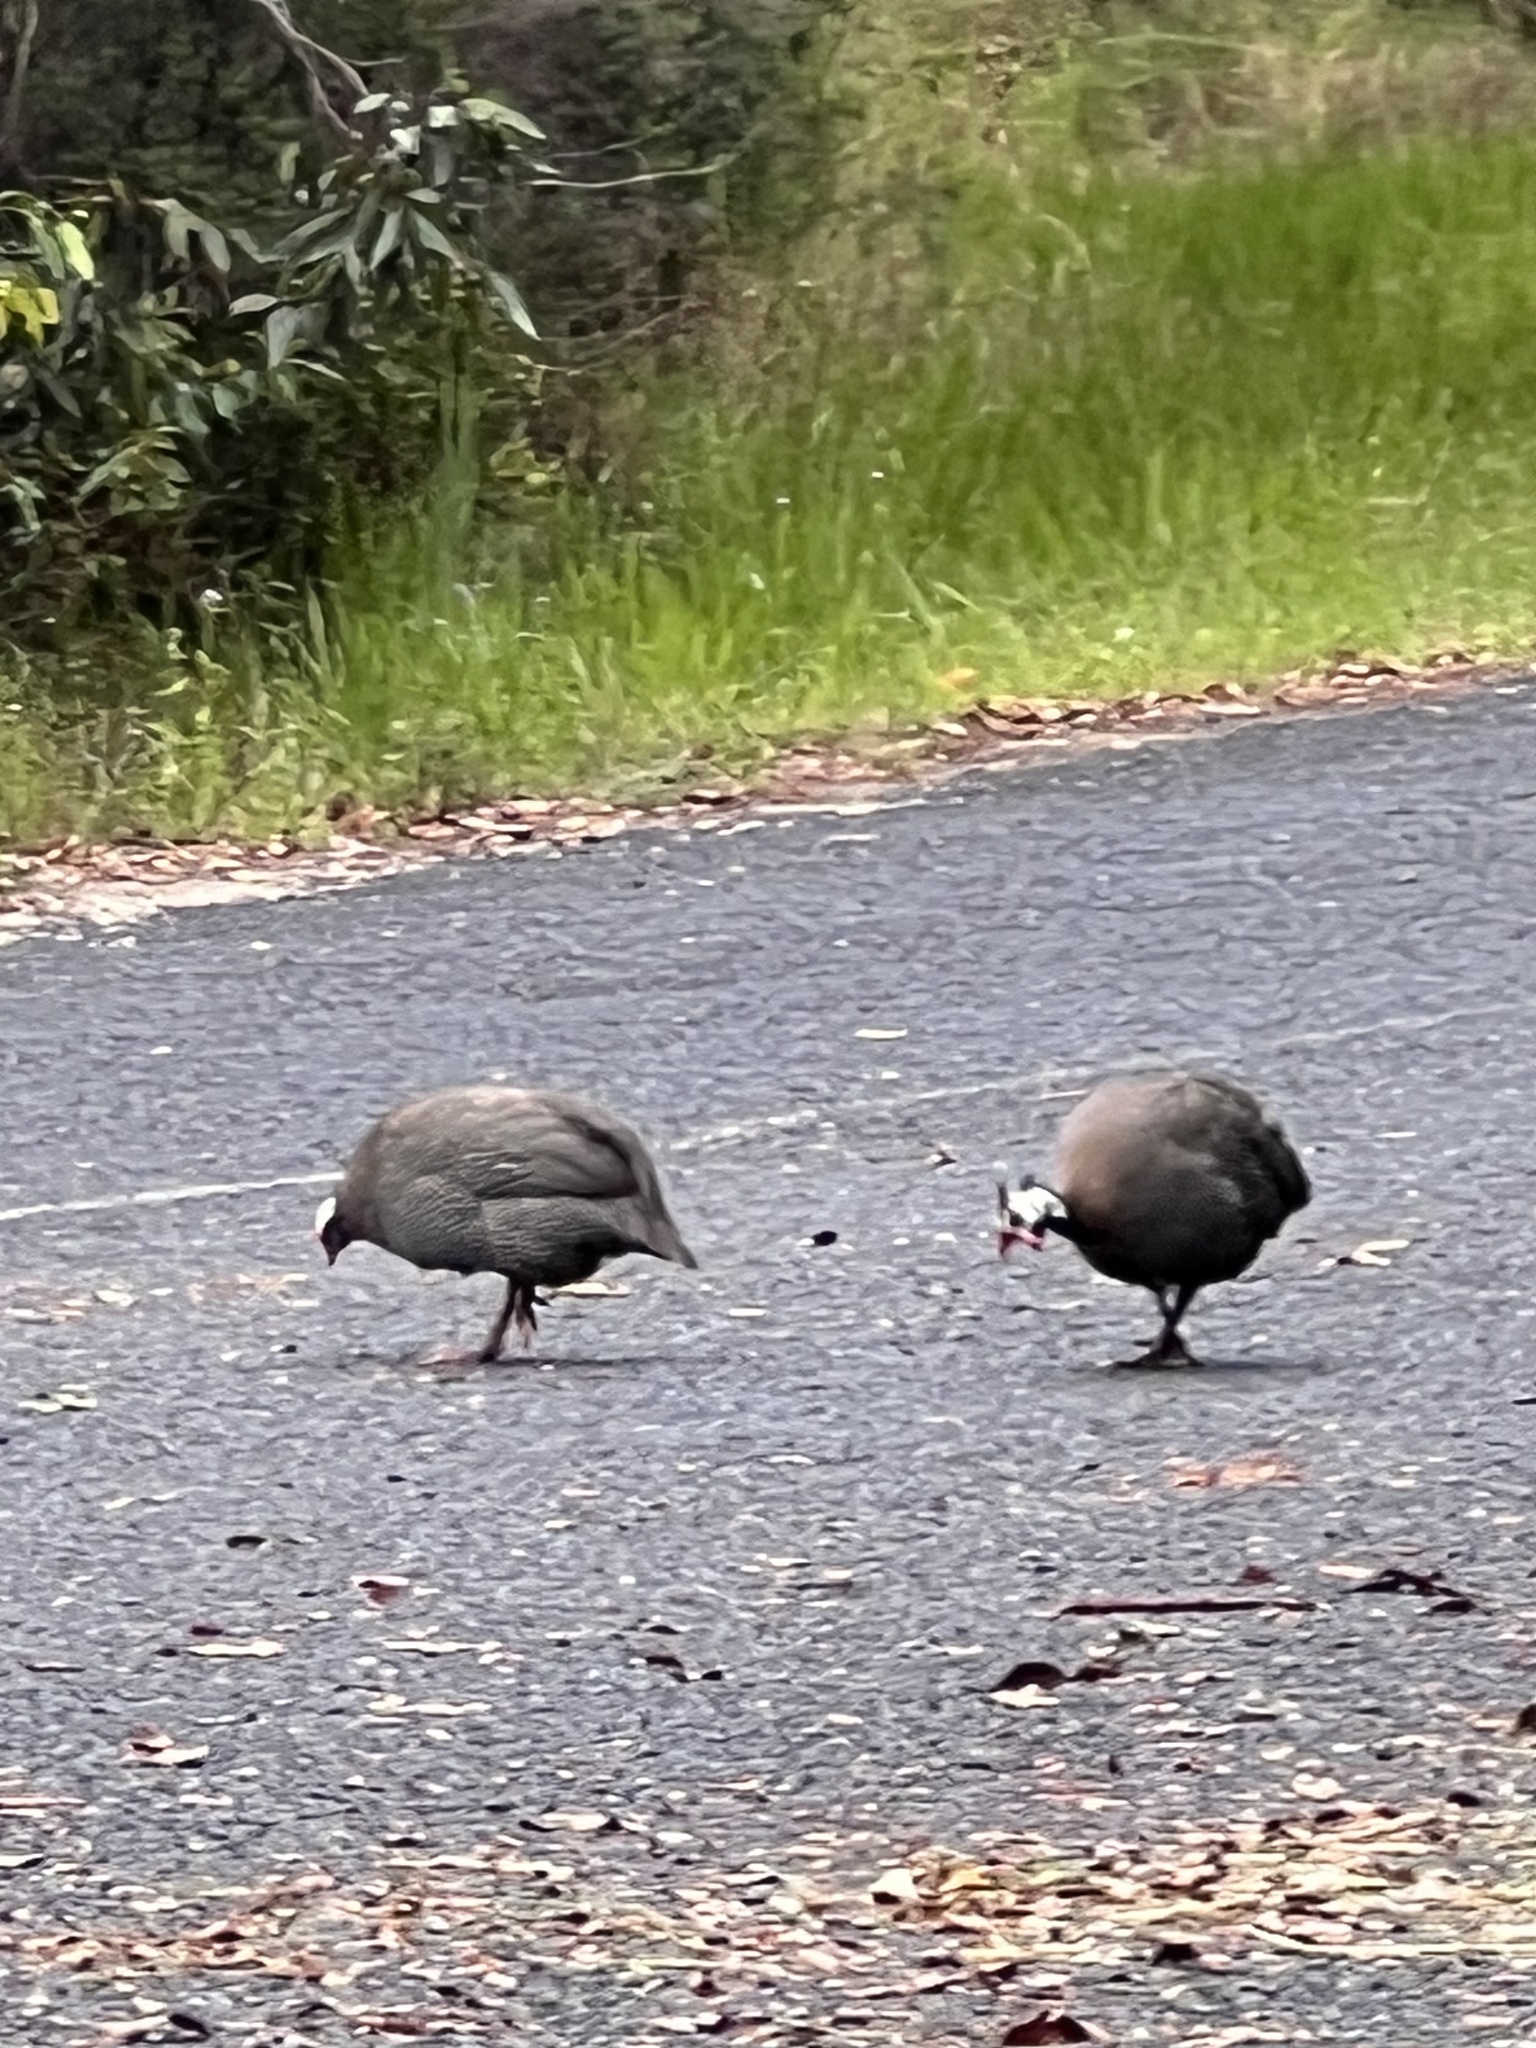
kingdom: Animalia
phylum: Chordata
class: Aves
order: Galliformes
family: Numididae
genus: Numida
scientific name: Numida meleagris
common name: Helmeted guineafowl
